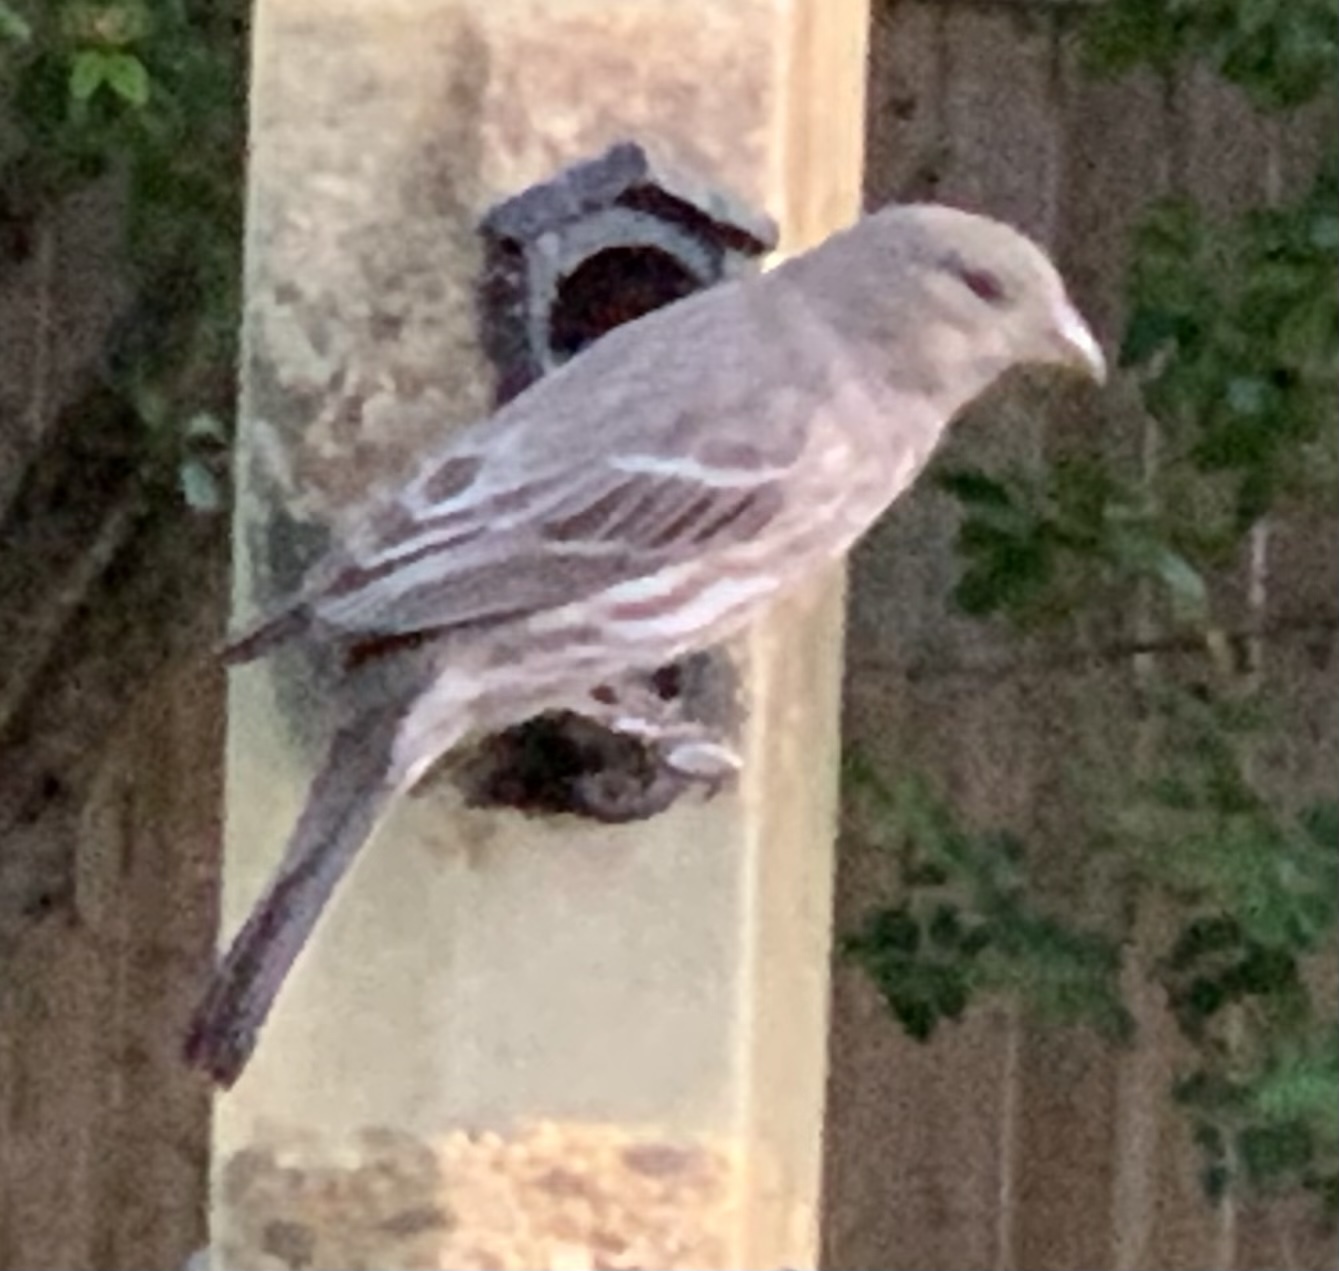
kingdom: Animalia
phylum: Chordata
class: Aves
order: Passeriformes
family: Fringillidae
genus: Haemorhous
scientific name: Haemorhous mexicanus
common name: House finch
